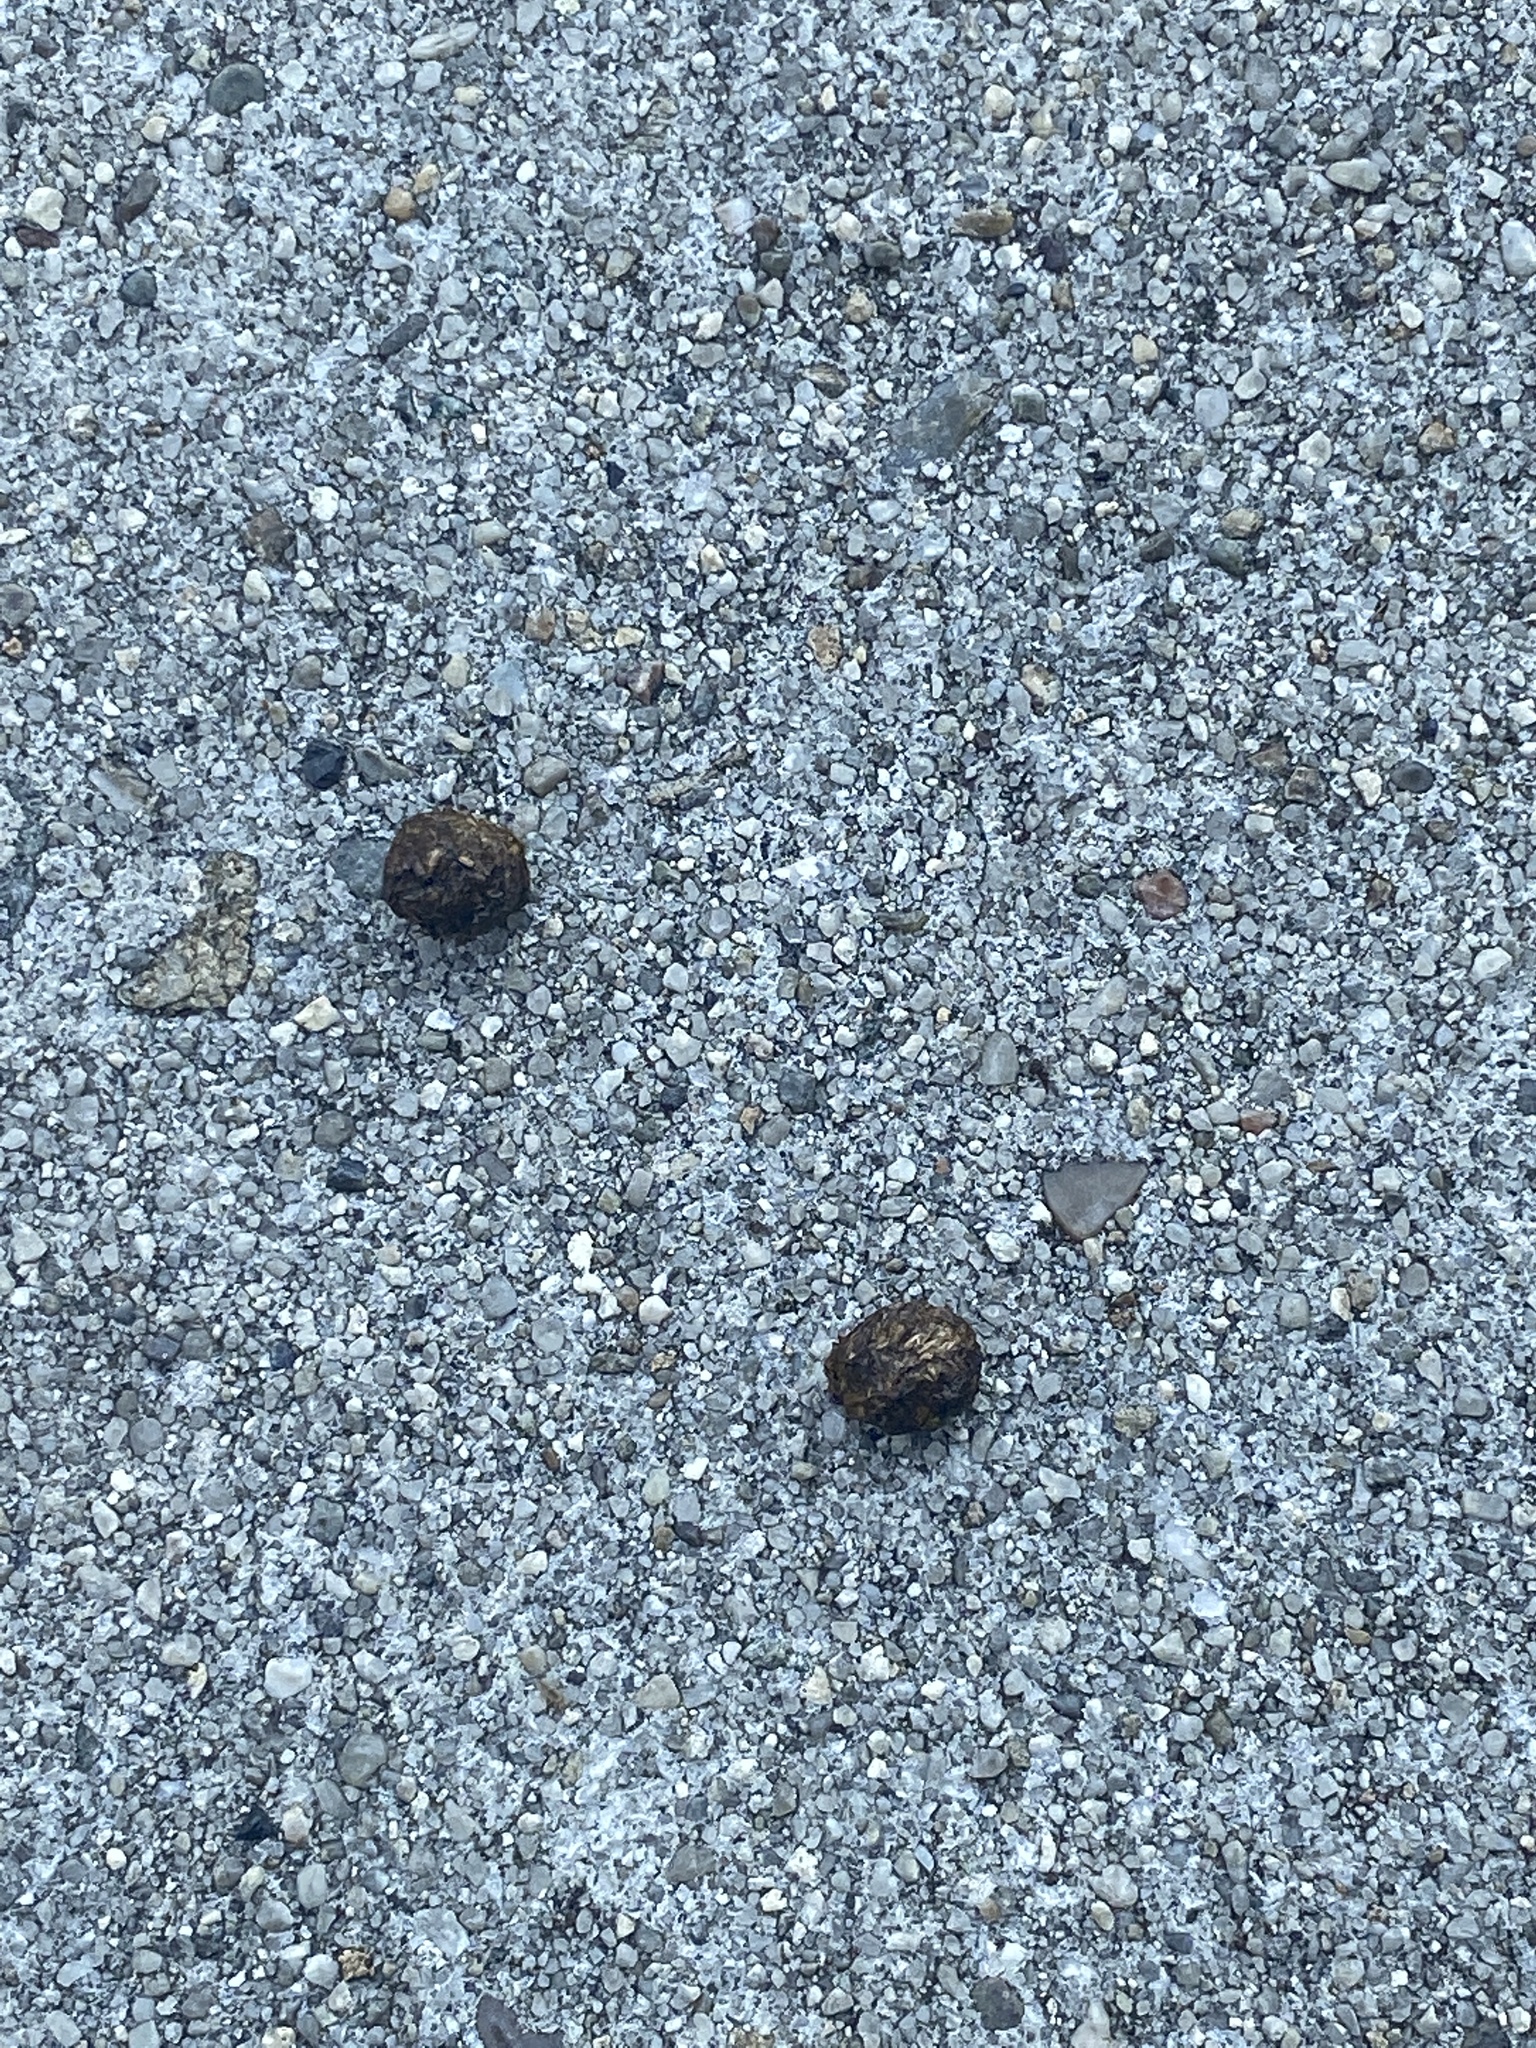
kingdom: Animalia
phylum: Chordata
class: Mammalia
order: Lagomorpha
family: Leporidae
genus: Lepus
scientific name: Lepus californicus
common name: Black-tailed jackrabbit
